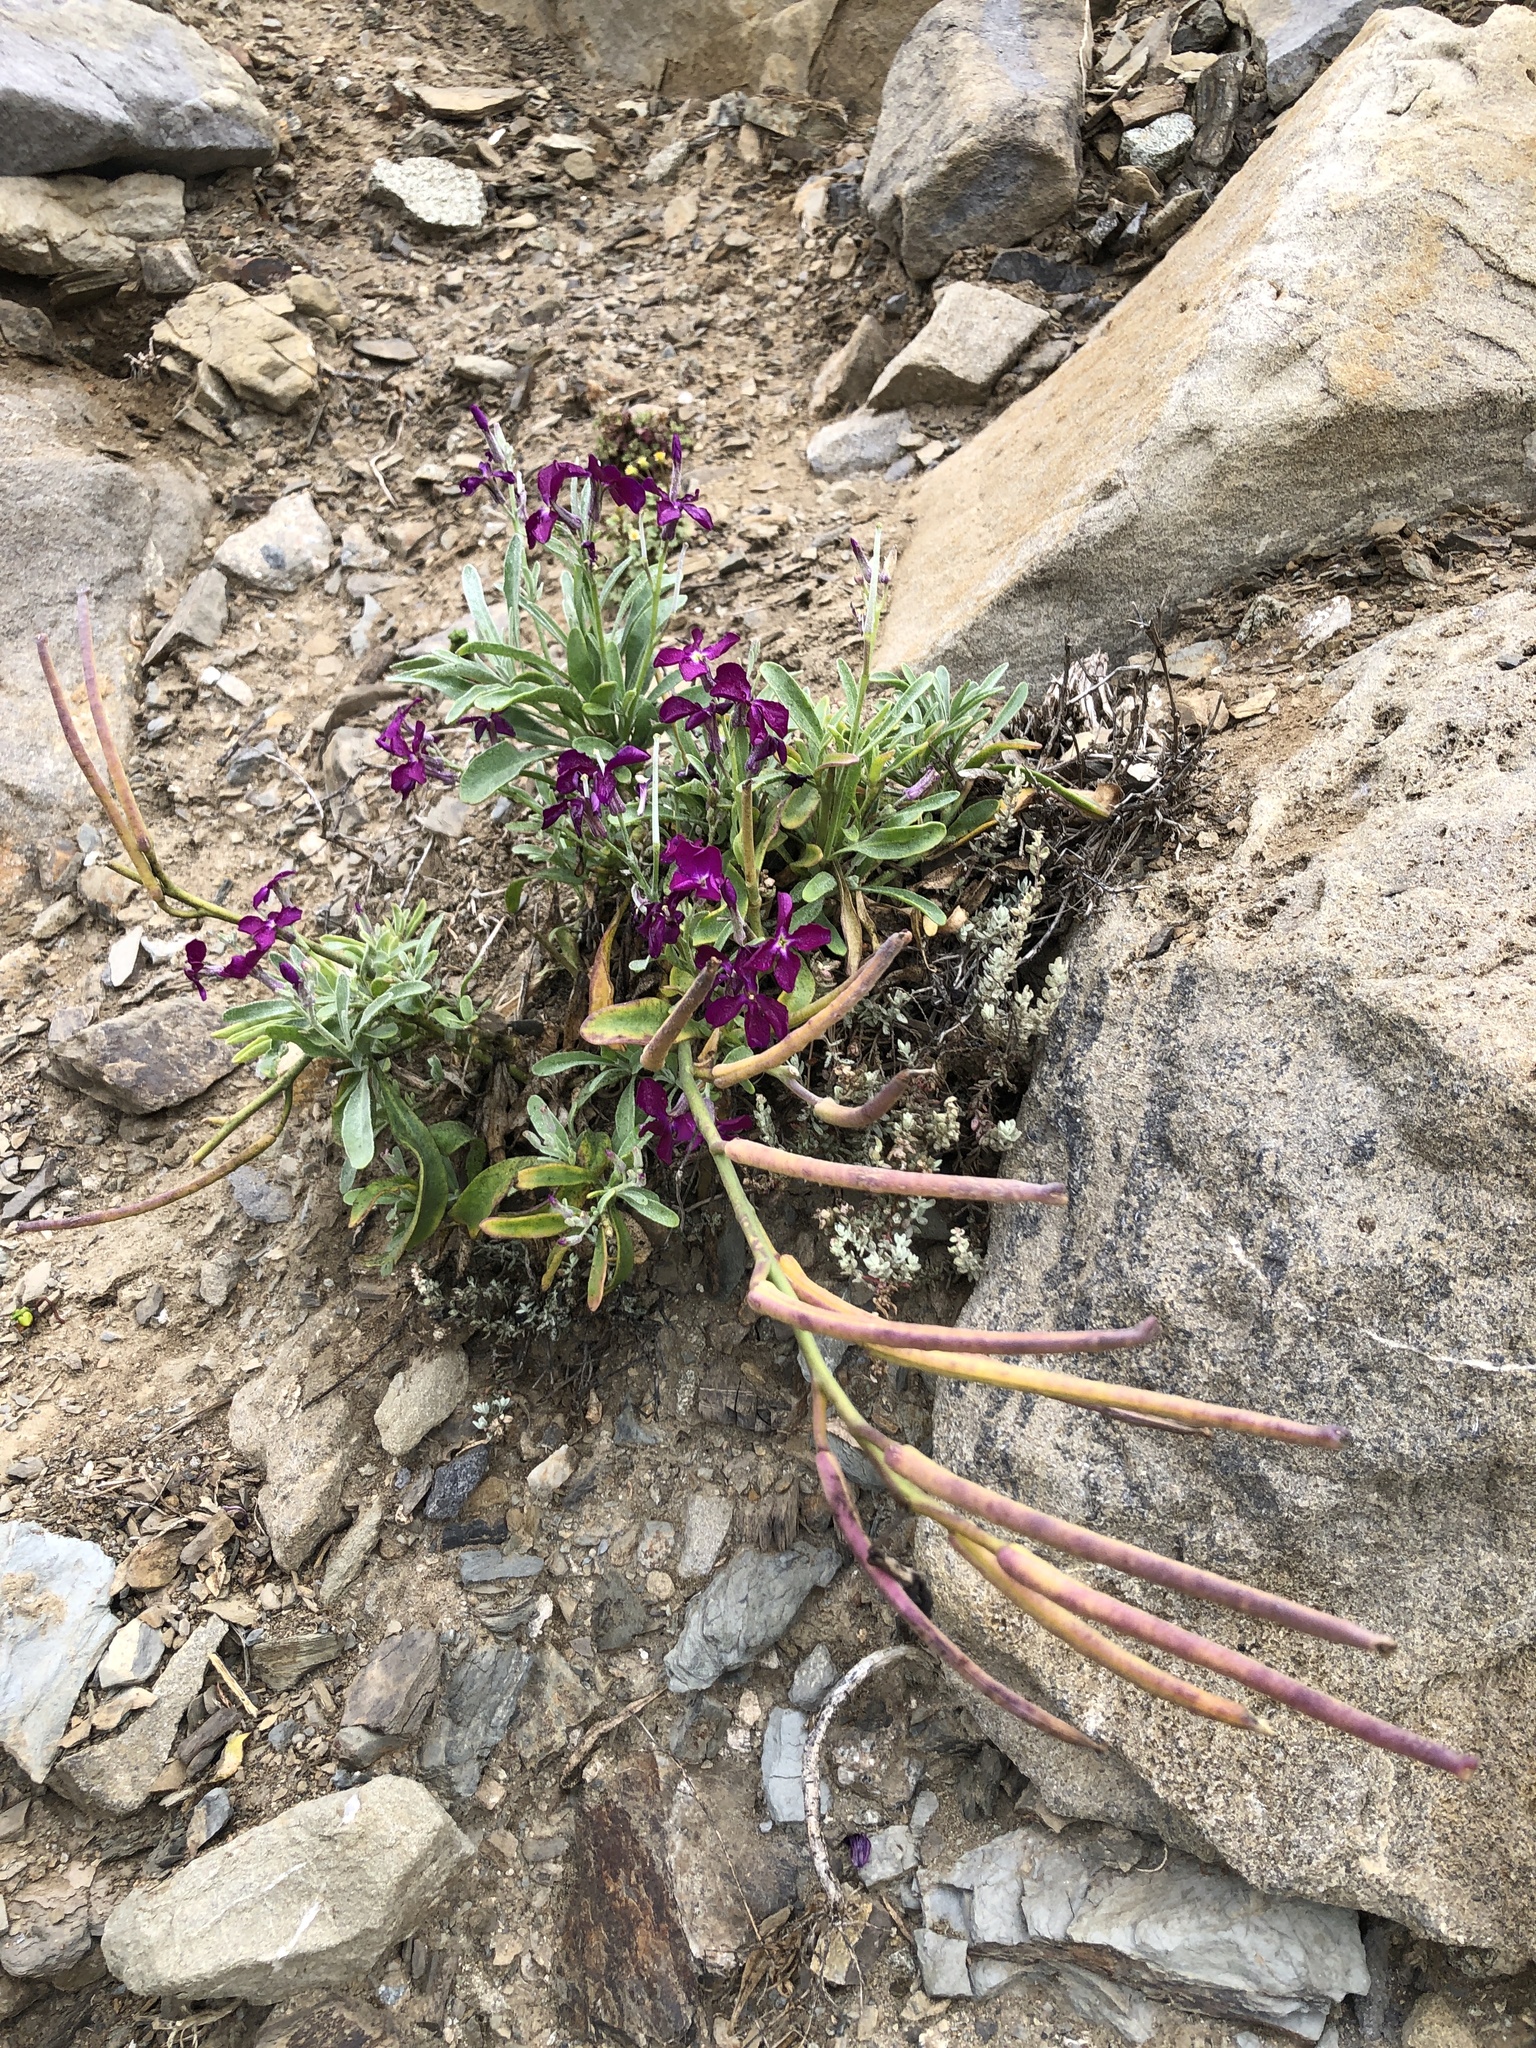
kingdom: Plantae
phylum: Tracheophyta
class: Magnoliopsida
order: Brassicales
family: Brassicaceae
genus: Matthiola
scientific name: Matthiola incana
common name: Hoary stock
